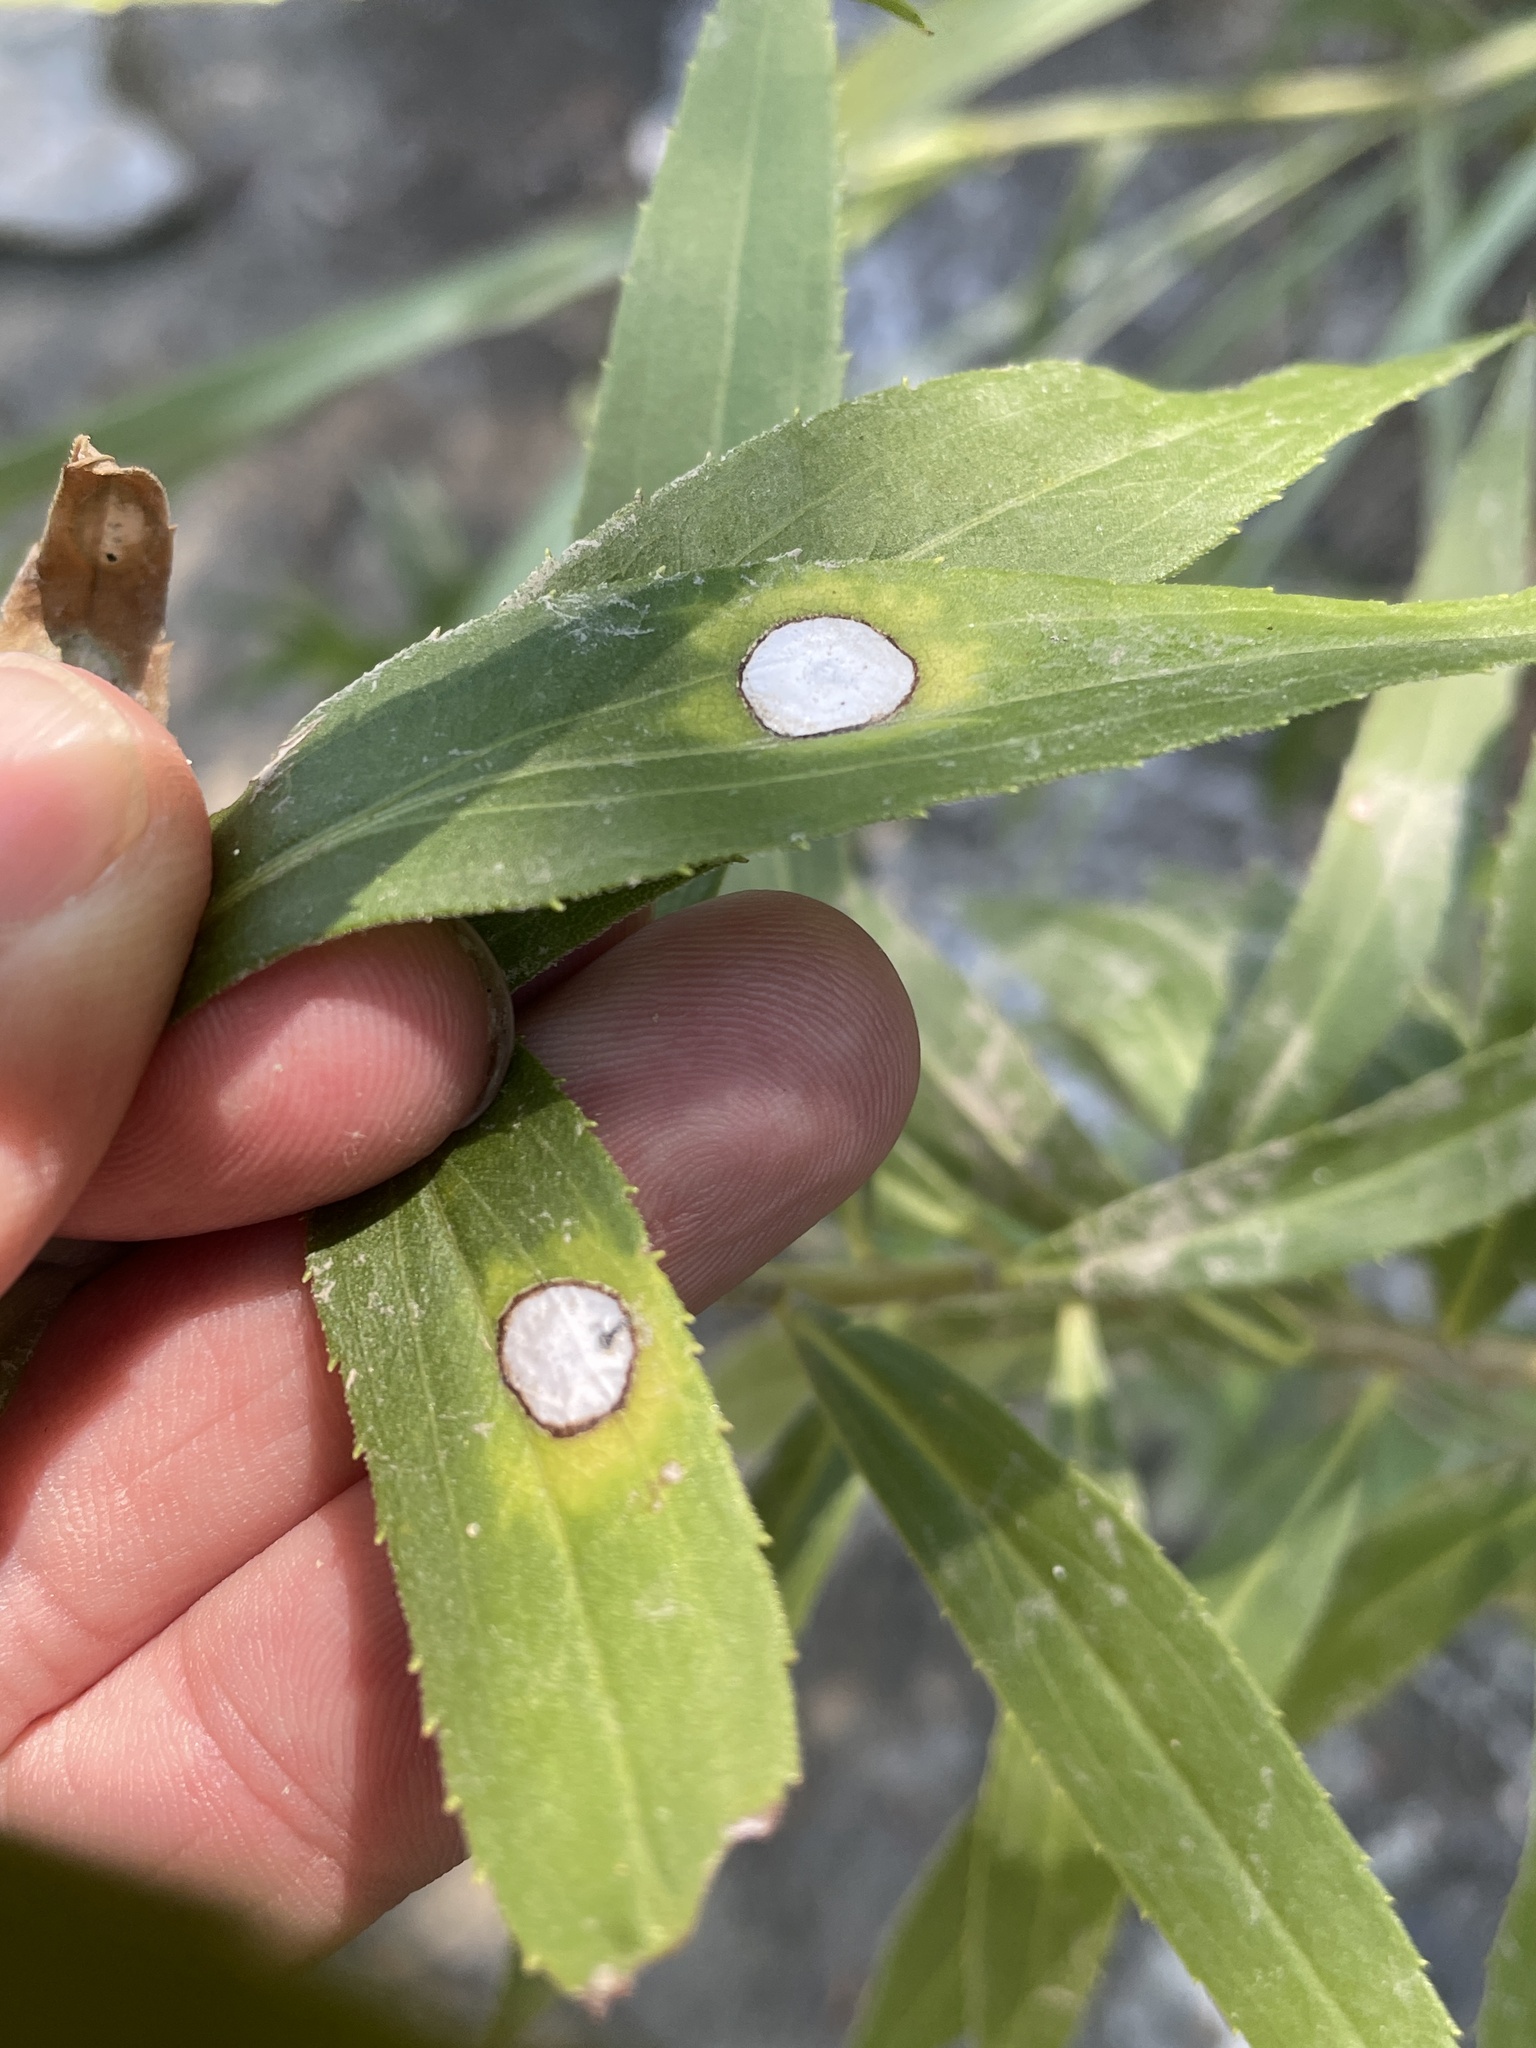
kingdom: Animalia
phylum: Arthropoda
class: Insecta
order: Diptera
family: Cecidomyiidae
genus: Asteromyia
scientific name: Asteromyia carbonifera
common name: Carbonifera goldenrod gall midge
